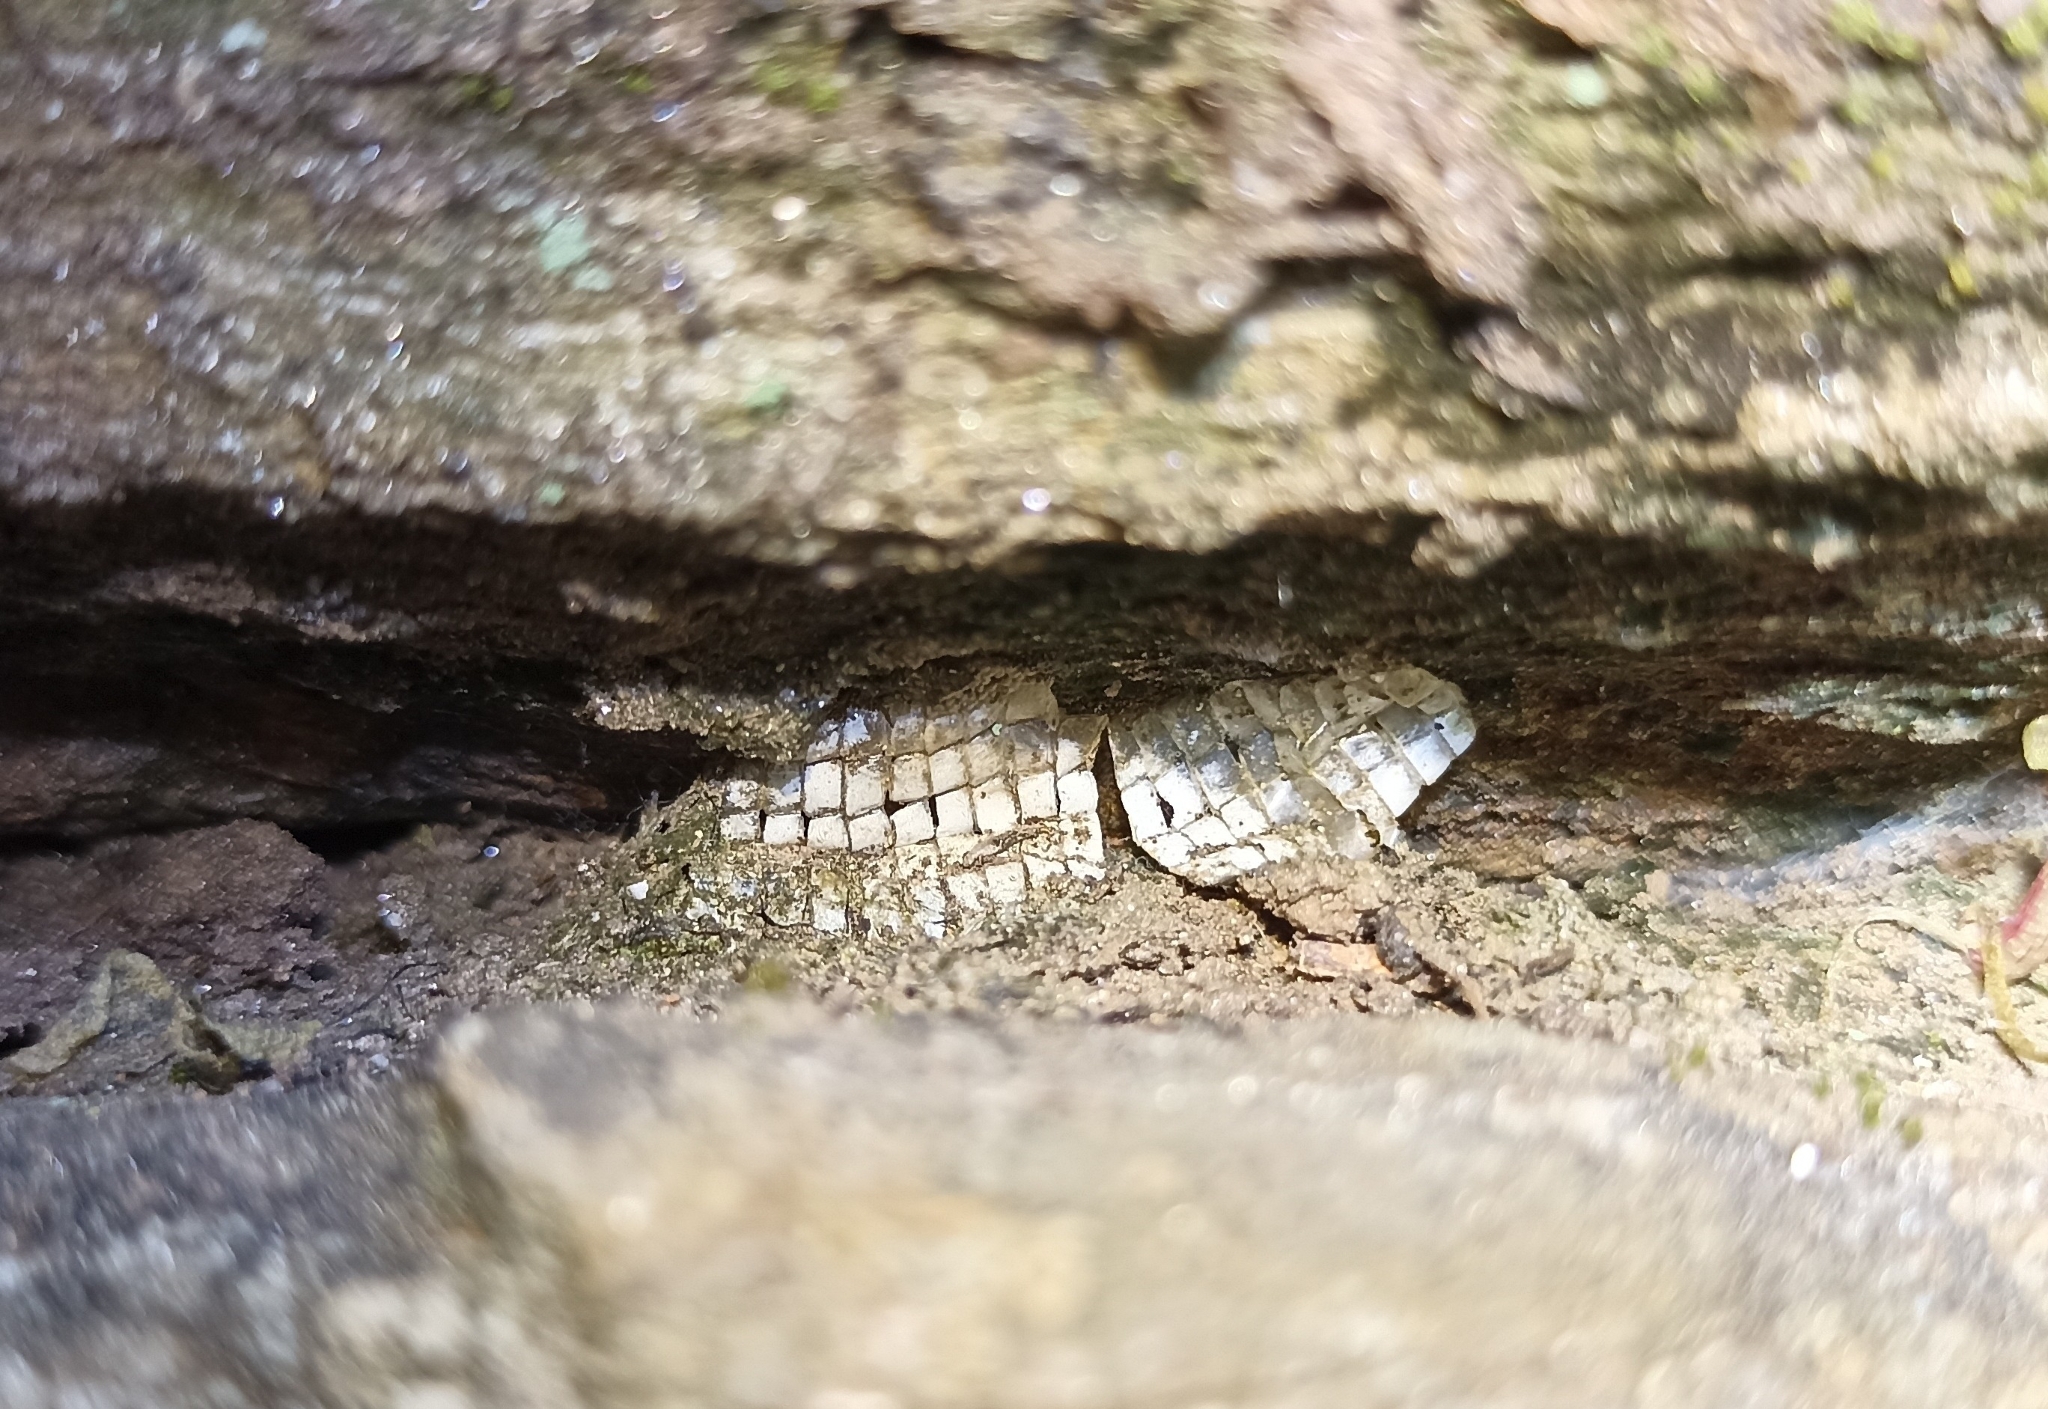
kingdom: Animalia
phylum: Chordata
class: Squamata
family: Lacertidae
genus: Podarcis
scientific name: Podarcis muralis
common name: Common wall lizard
